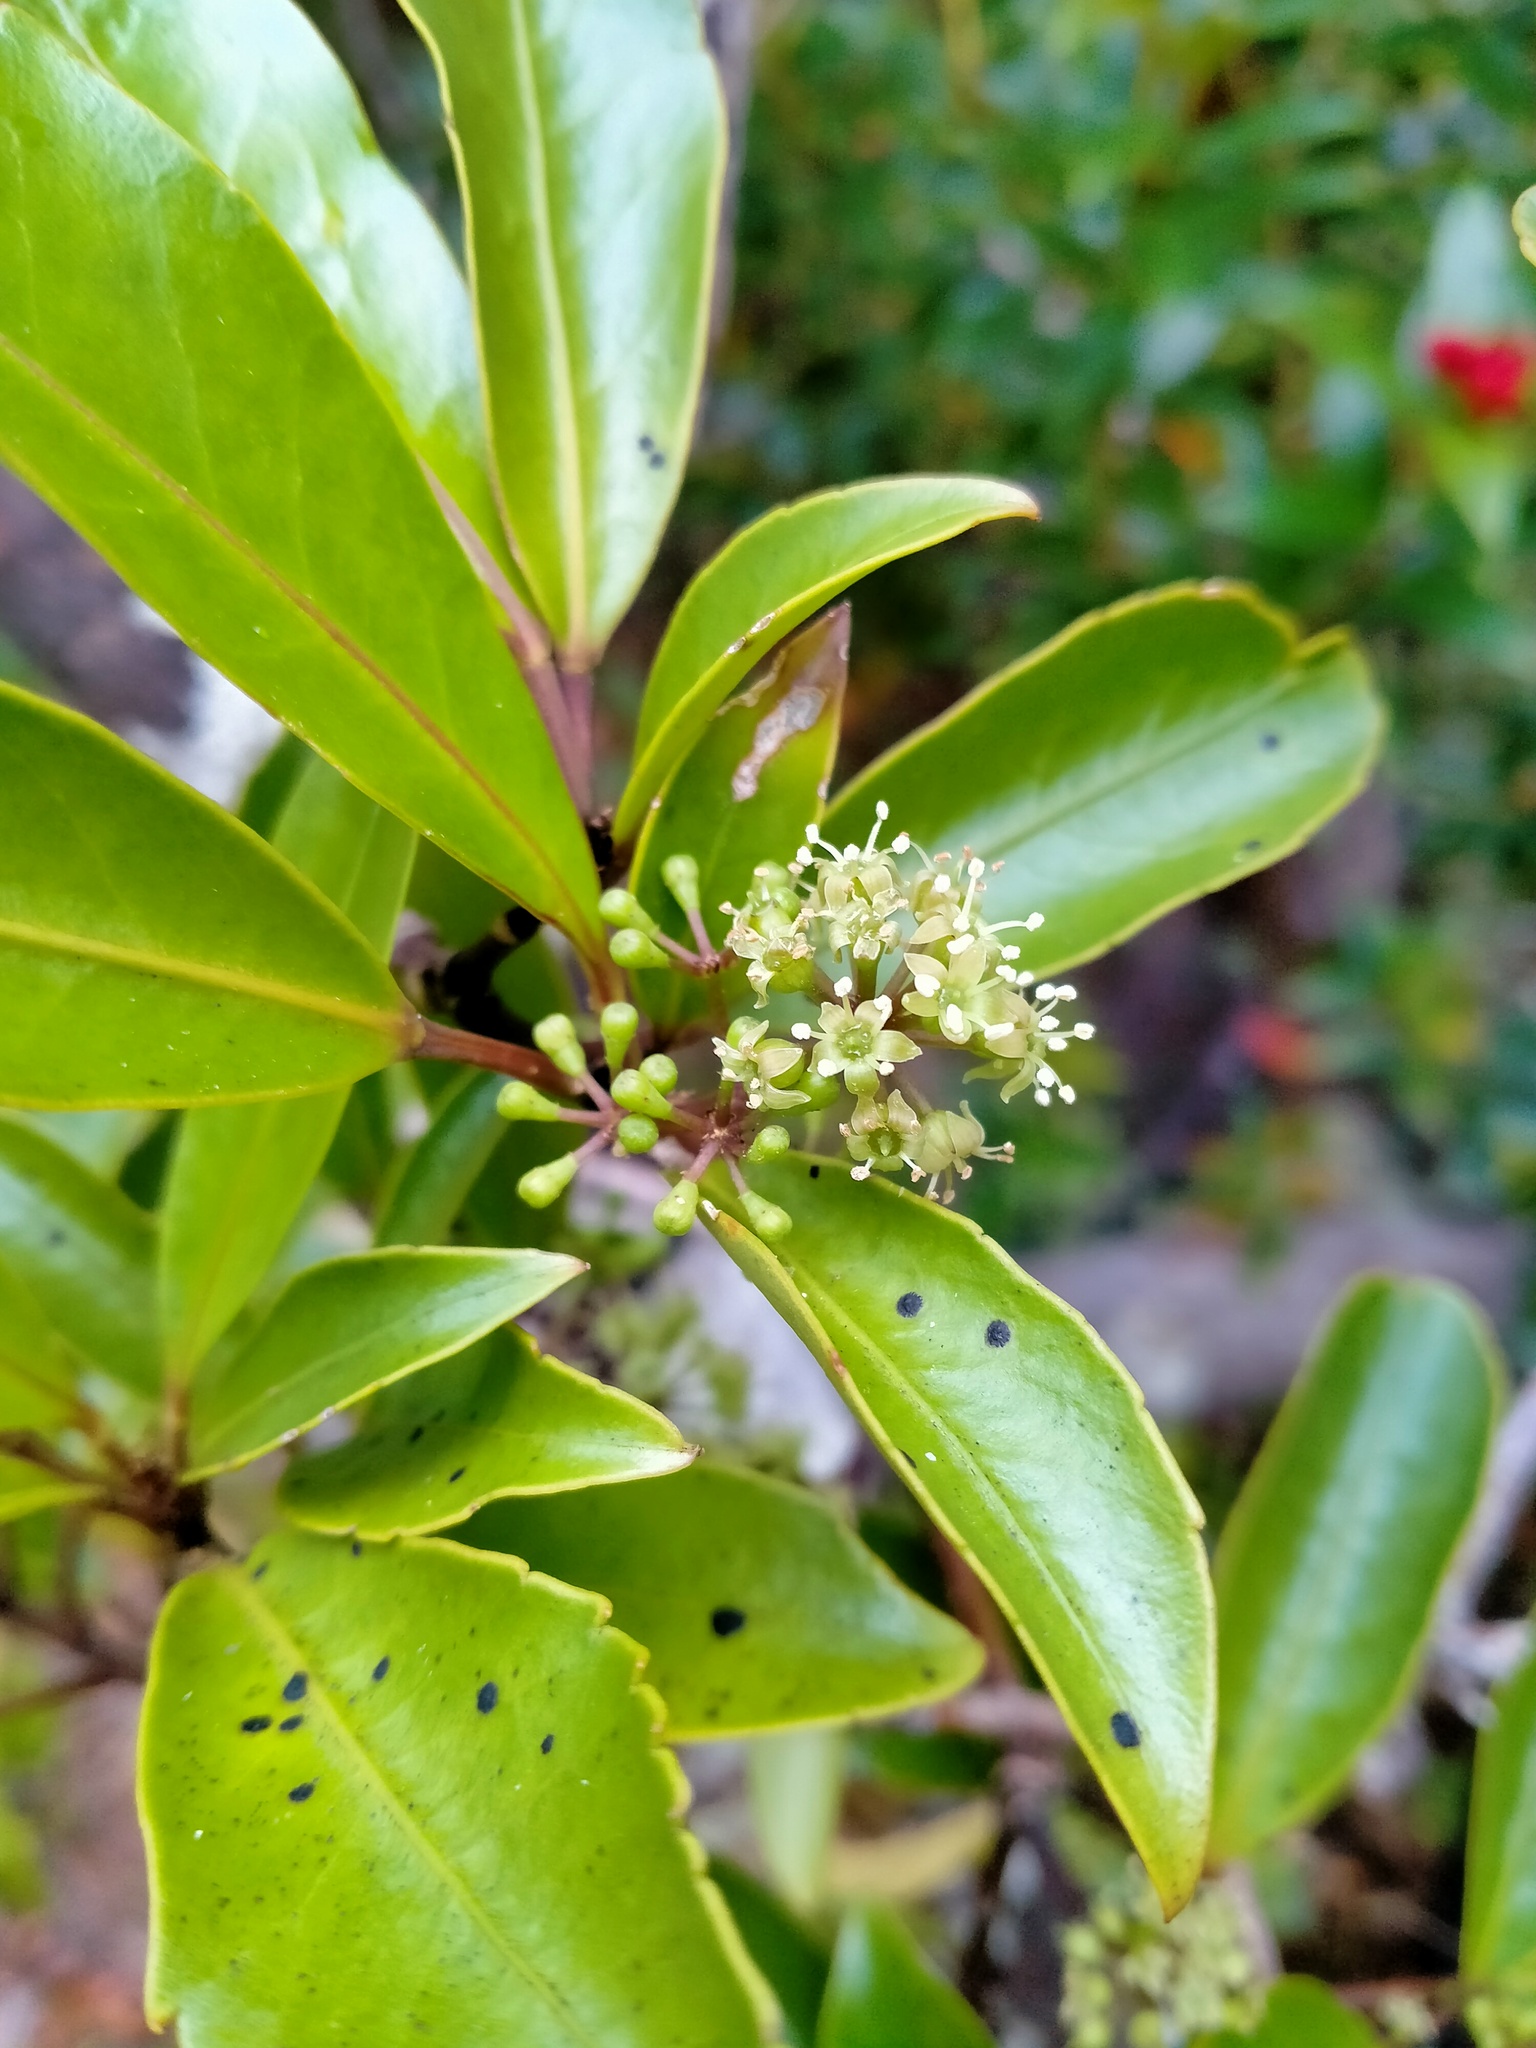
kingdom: Plantae
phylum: Tracheophyta
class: Magnoliopsida
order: Apiales
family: Araliaceae
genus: Raukaua
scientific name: Raukaua simplex
